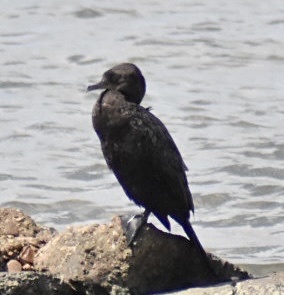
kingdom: Animalia
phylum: Chordata
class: Aves
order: Suliformes
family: Phalacrocoracidae
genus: Phalacrocorax
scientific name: Phalacrocorax brasilianus
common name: Neotropic cormorant
